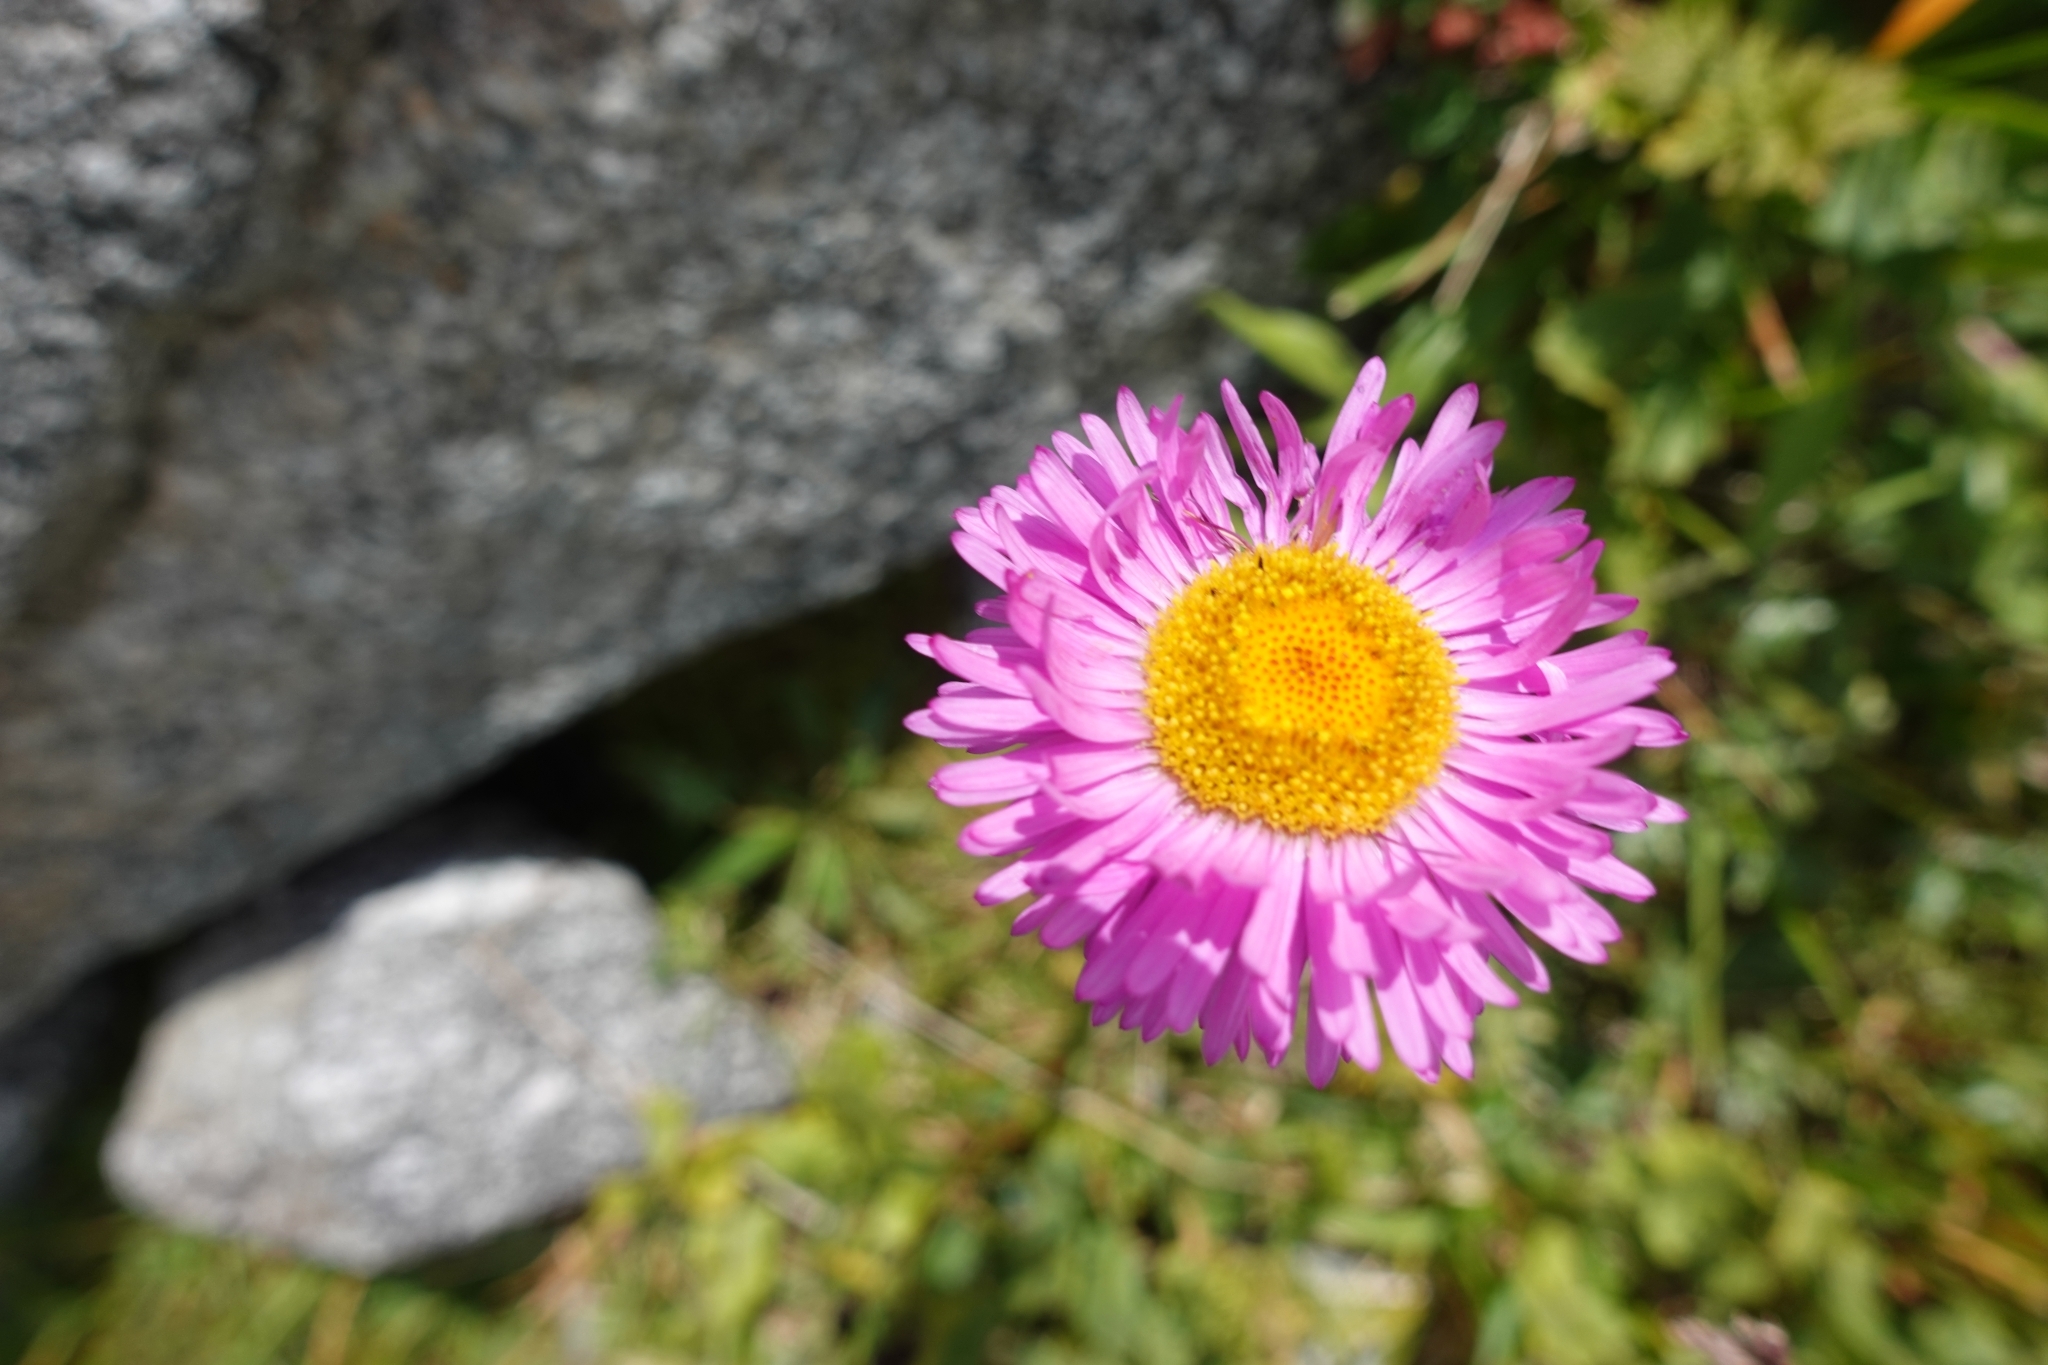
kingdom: Plantae
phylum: Tracheophyta
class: Magnoliopsida
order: Asterales
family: Asteraceae
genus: Erigeron
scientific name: Erigeron caucasicus
